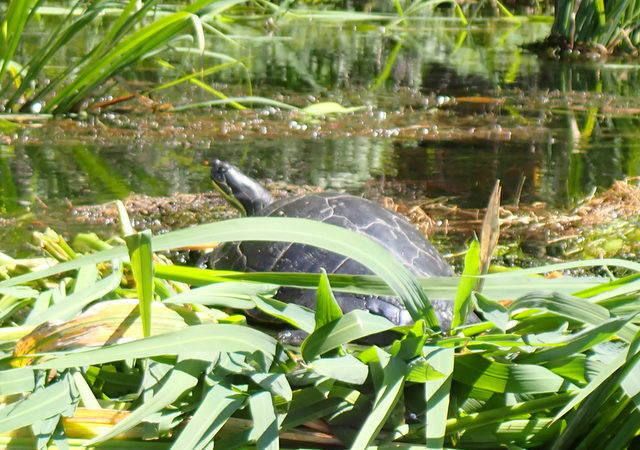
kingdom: Animalia
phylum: Chordata
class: Testudines
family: Emydidae
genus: Pseudemys
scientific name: Pseudemys concinna
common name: Eastern river cooter
